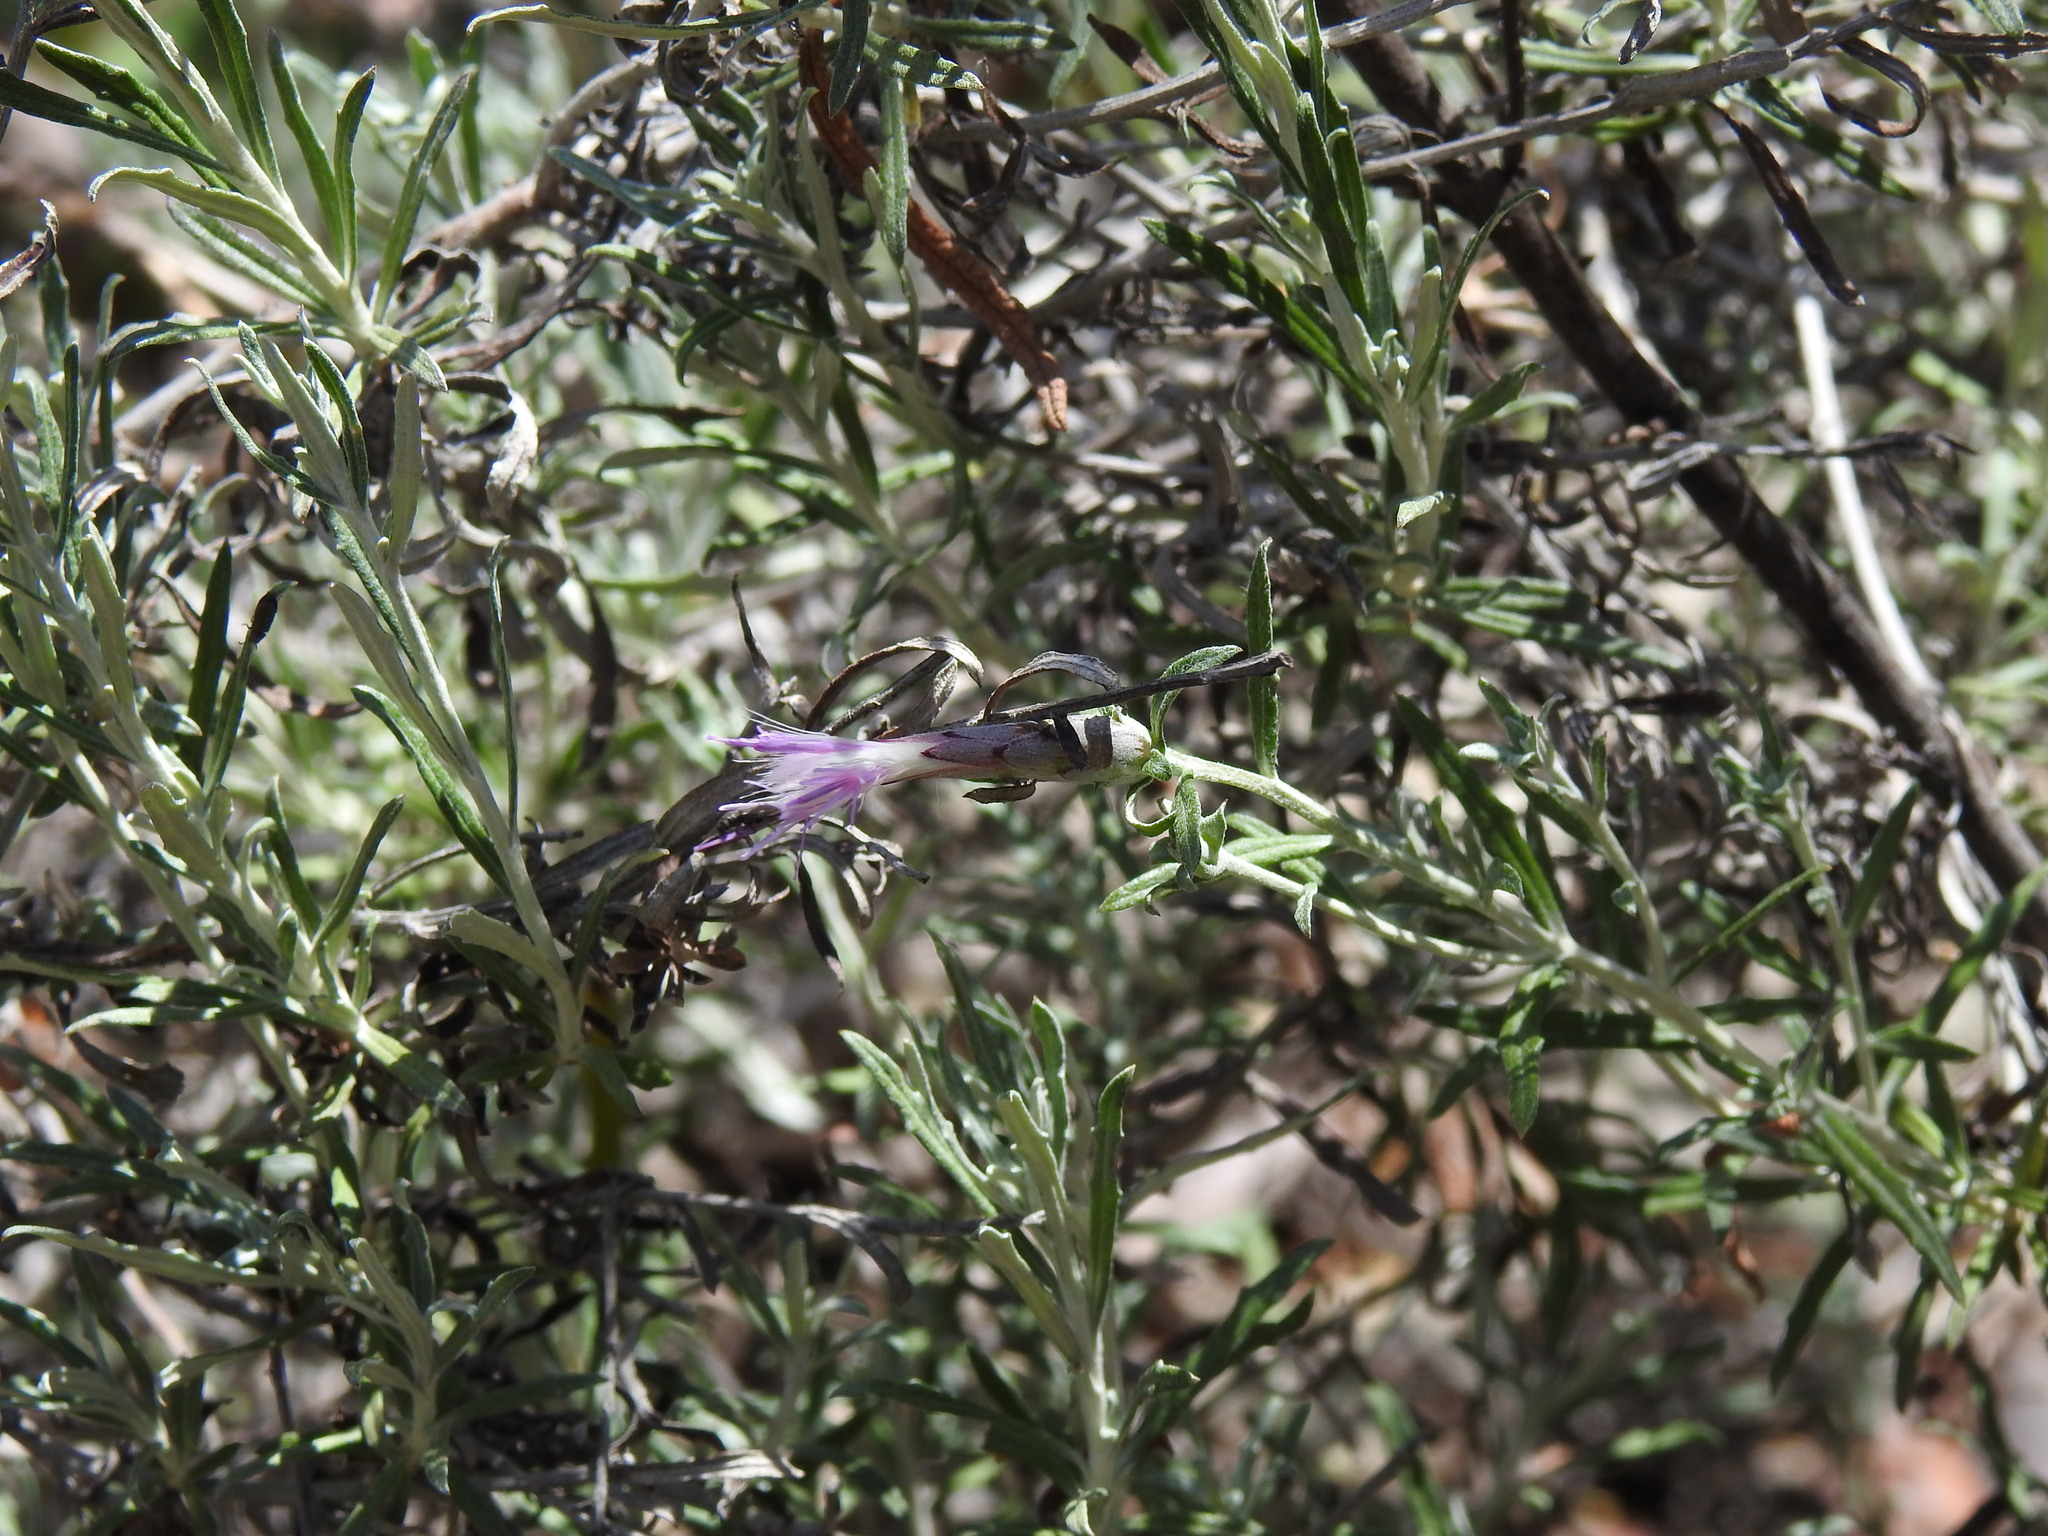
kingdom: Plantae
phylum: Tracheophyta
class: Magnoliopsida
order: Asterales
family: Asteraceae
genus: Staehelina
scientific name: Staehelina dubia
